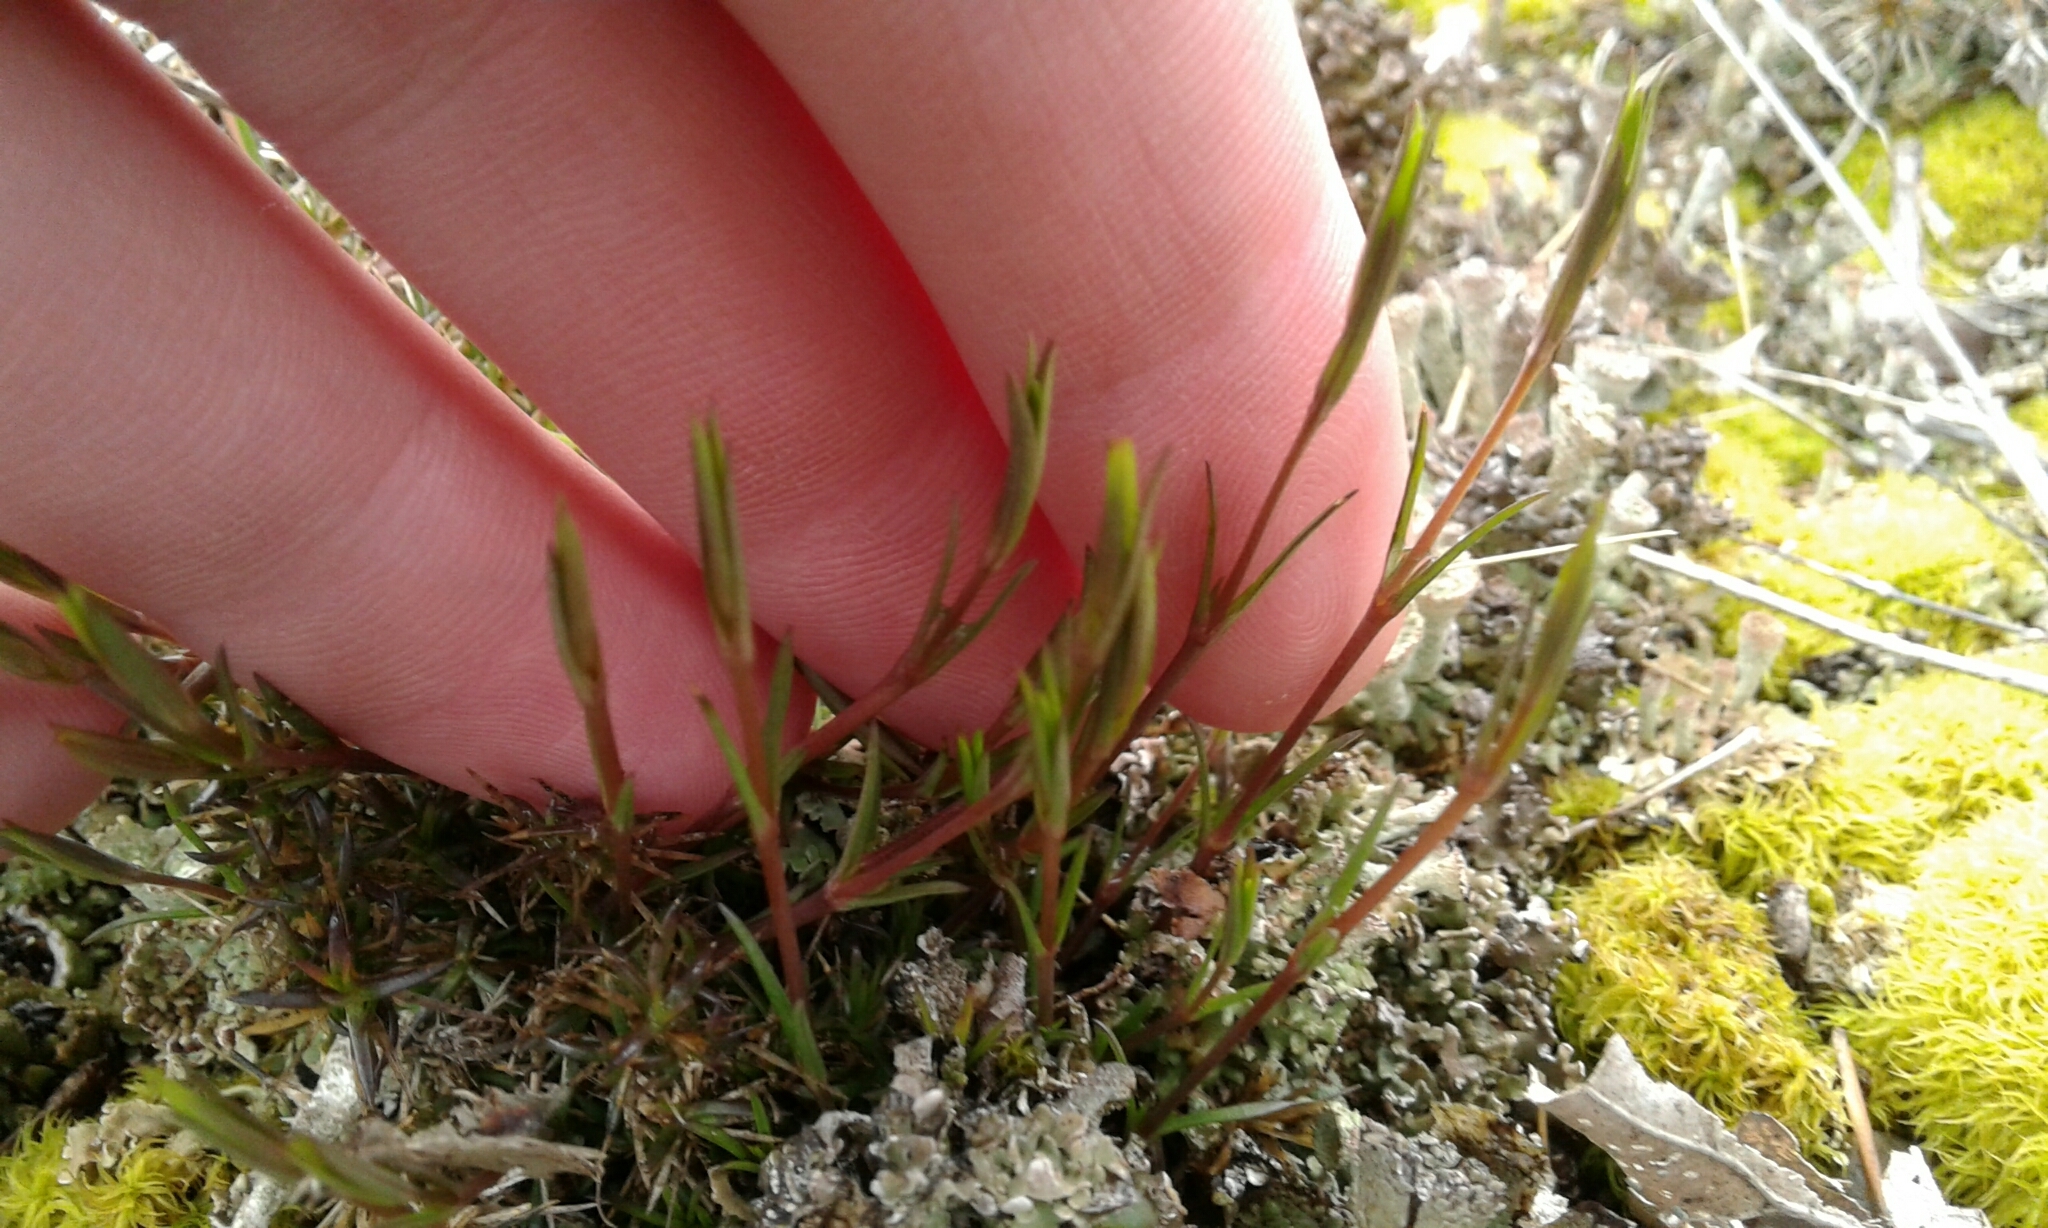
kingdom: Plantae
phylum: Tracheophyta
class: Magnoliopsida
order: Caryophyllales
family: Caryophyllaceae
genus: Sabulina
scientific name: Sabulina michauxii
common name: Michaux's stitchwort
